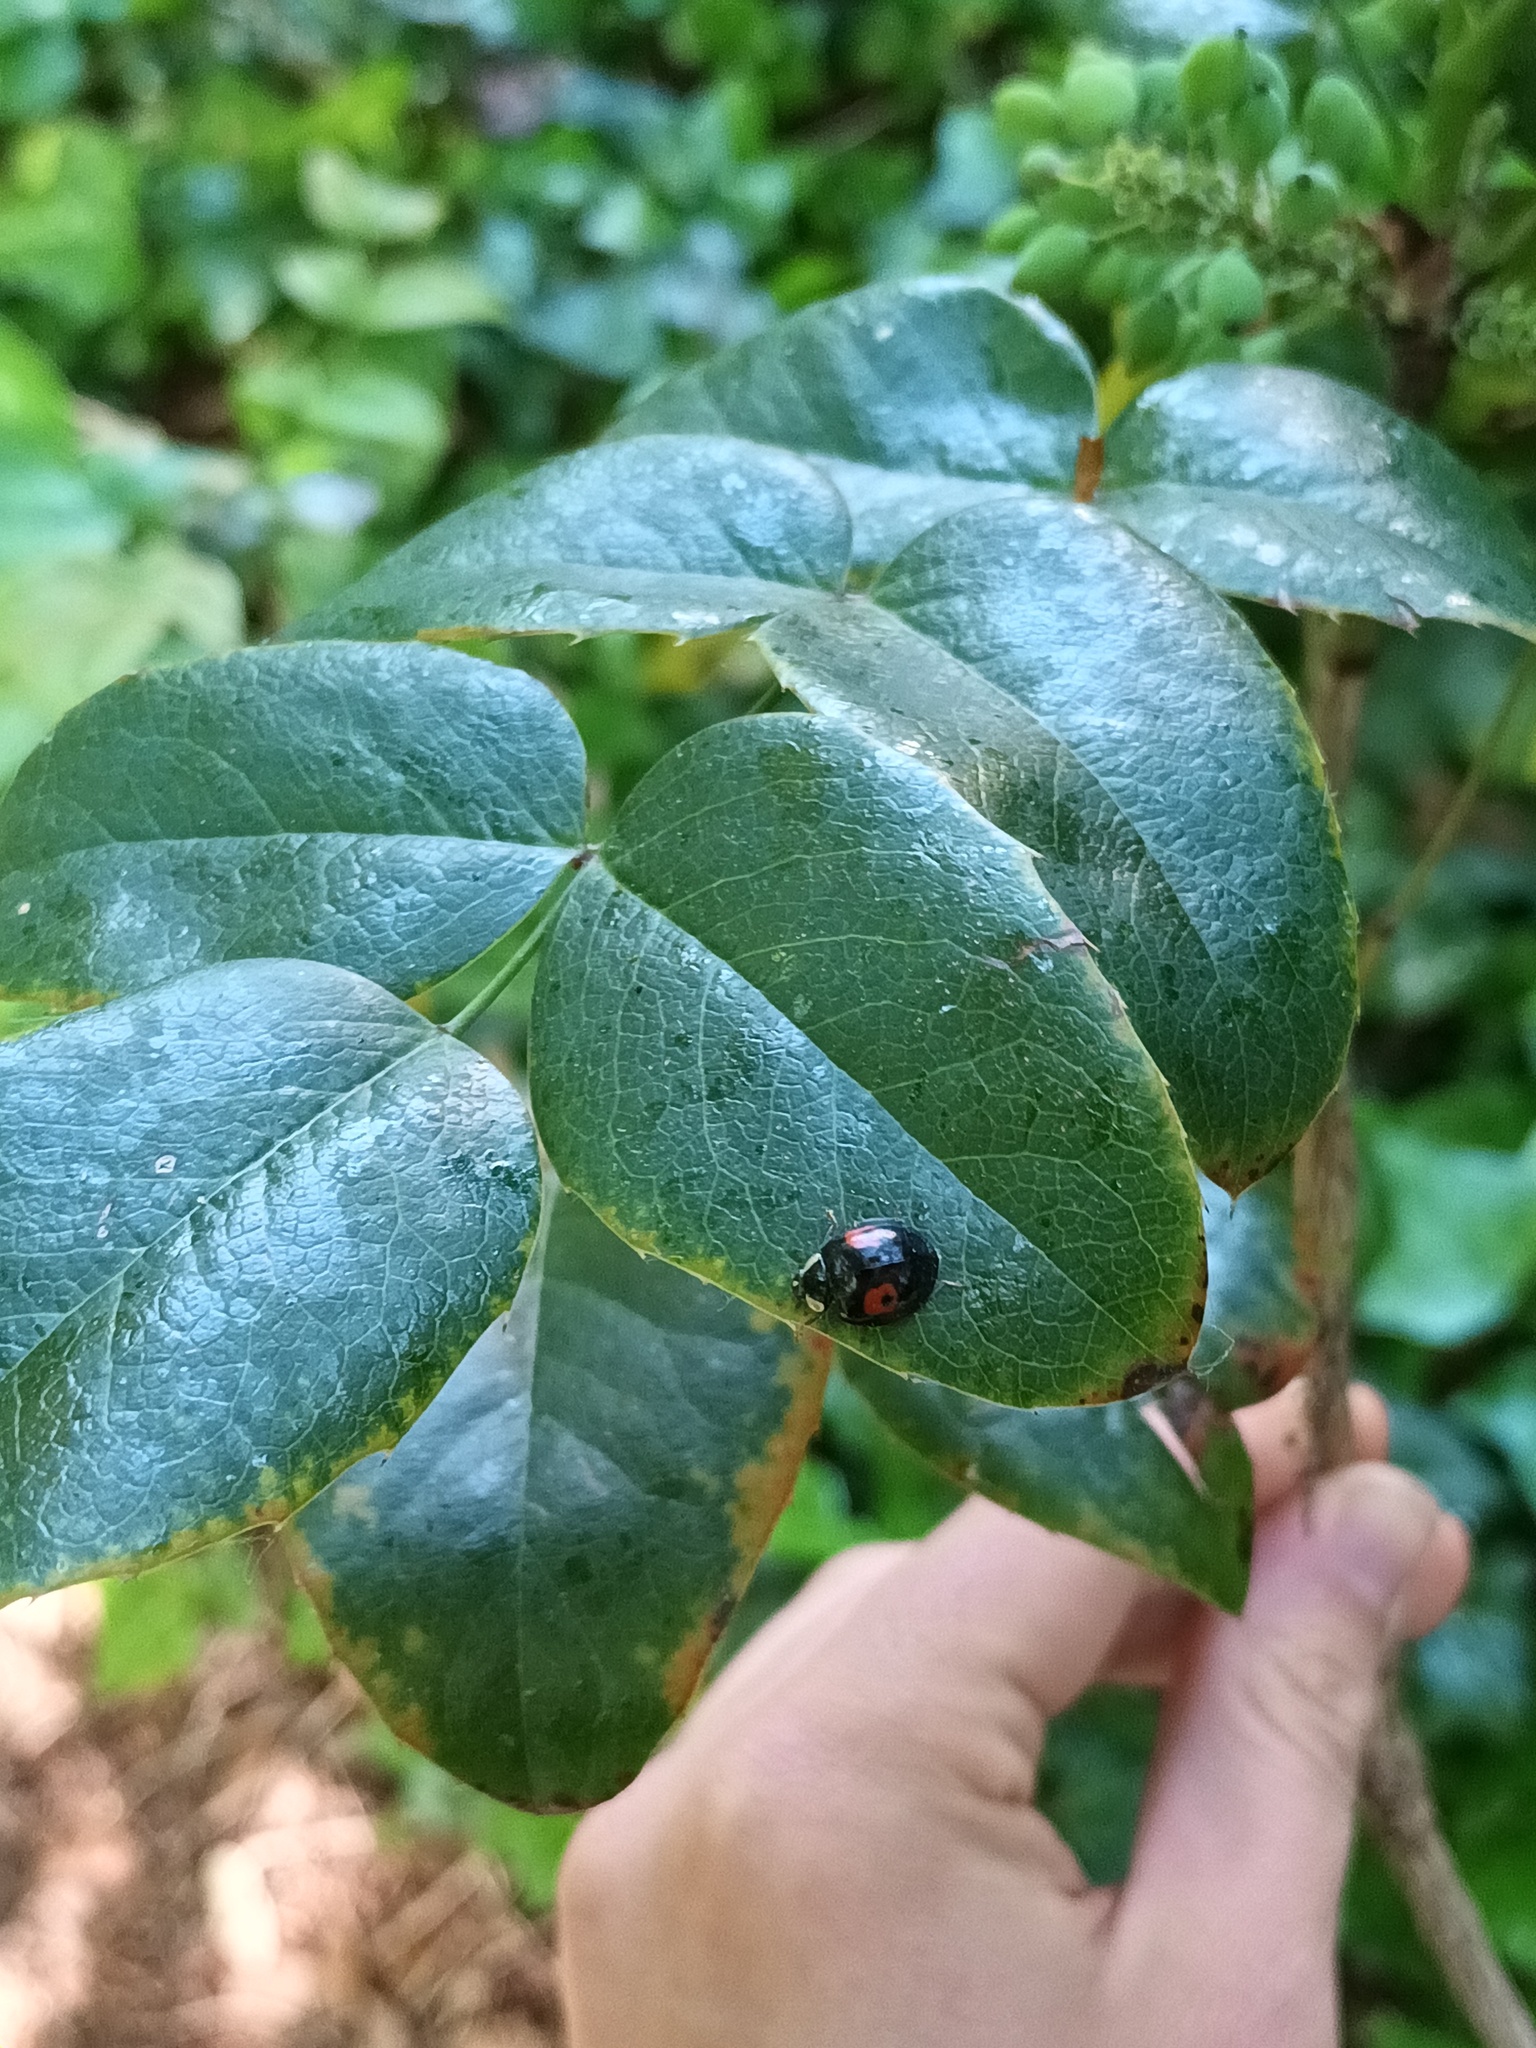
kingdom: Animalia
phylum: Arthropoda
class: Insecta
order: Coleoptera
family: Coccinellidae
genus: Harmonia
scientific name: Harmonia axyridis
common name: Harlequin ladybird
